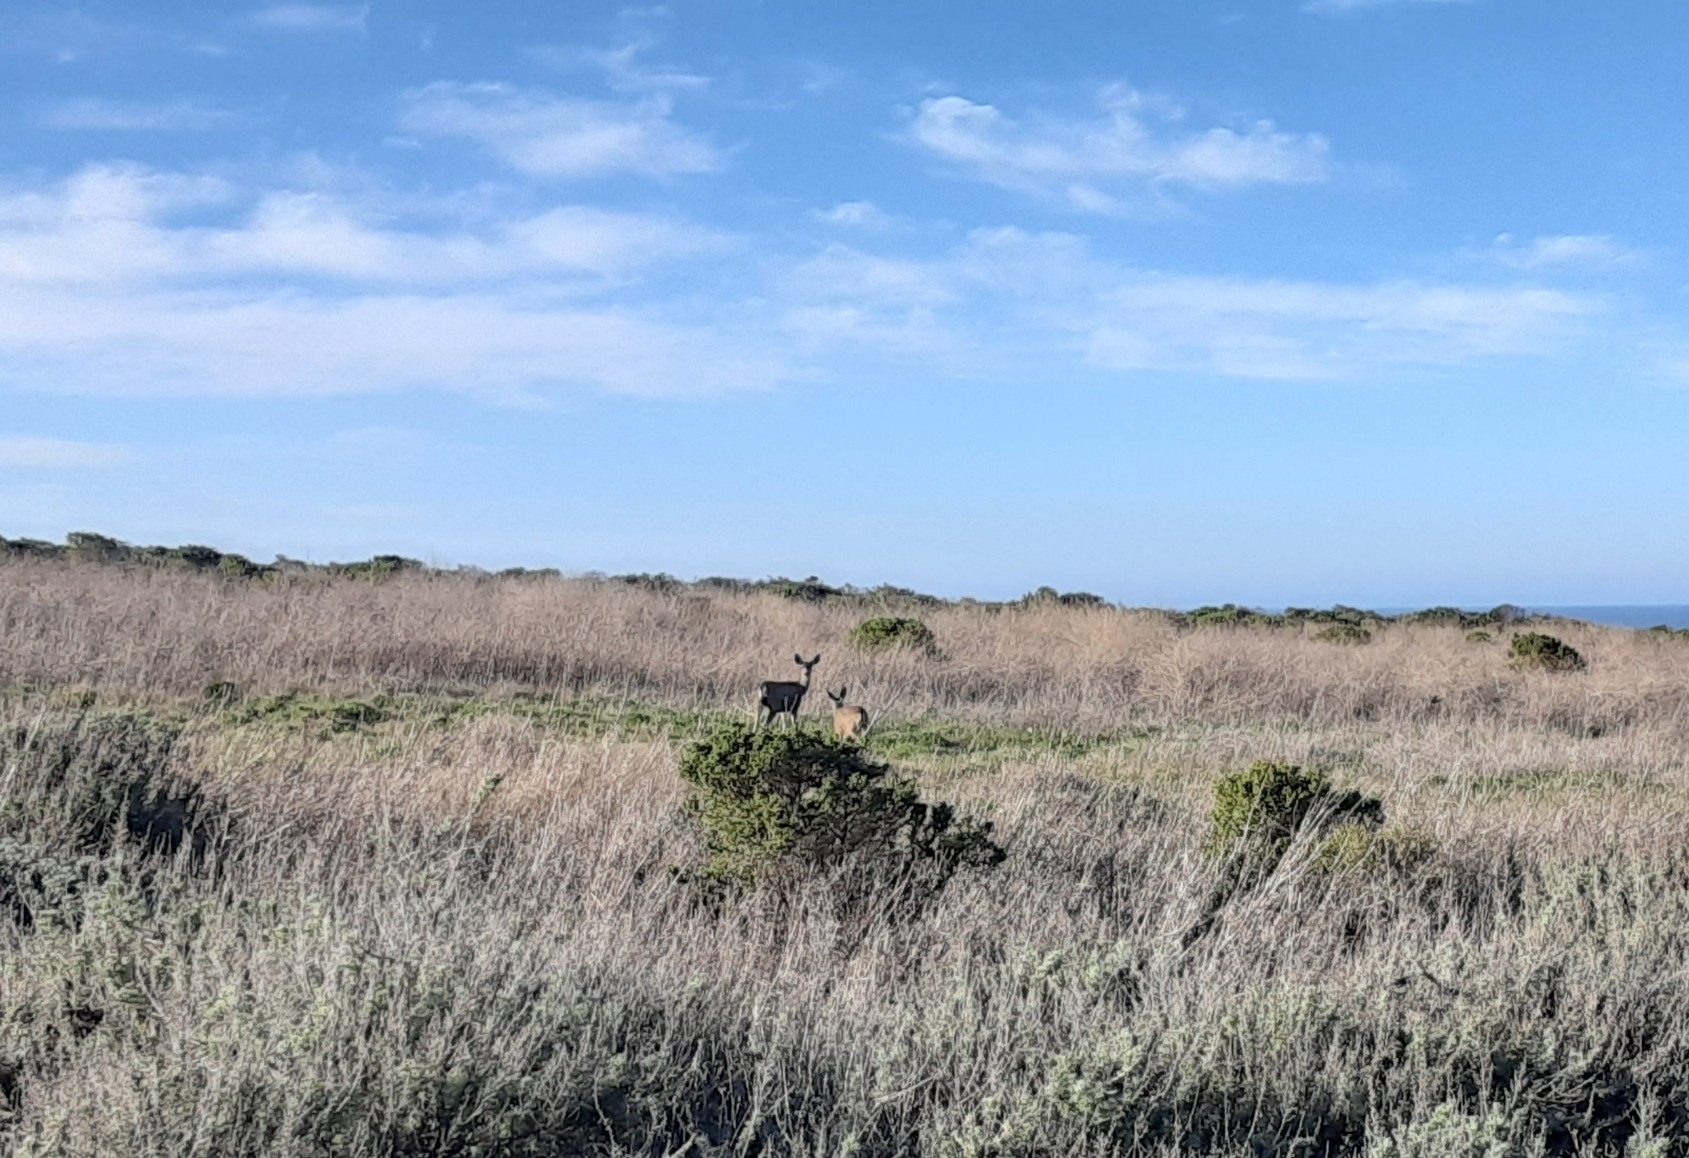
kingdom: Animalia
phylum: Chordata
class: Mammalia
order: Artiodactyla
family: Cervidae
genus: Odocoileus
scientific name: Odocoileus hemionus
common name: Mule deer
